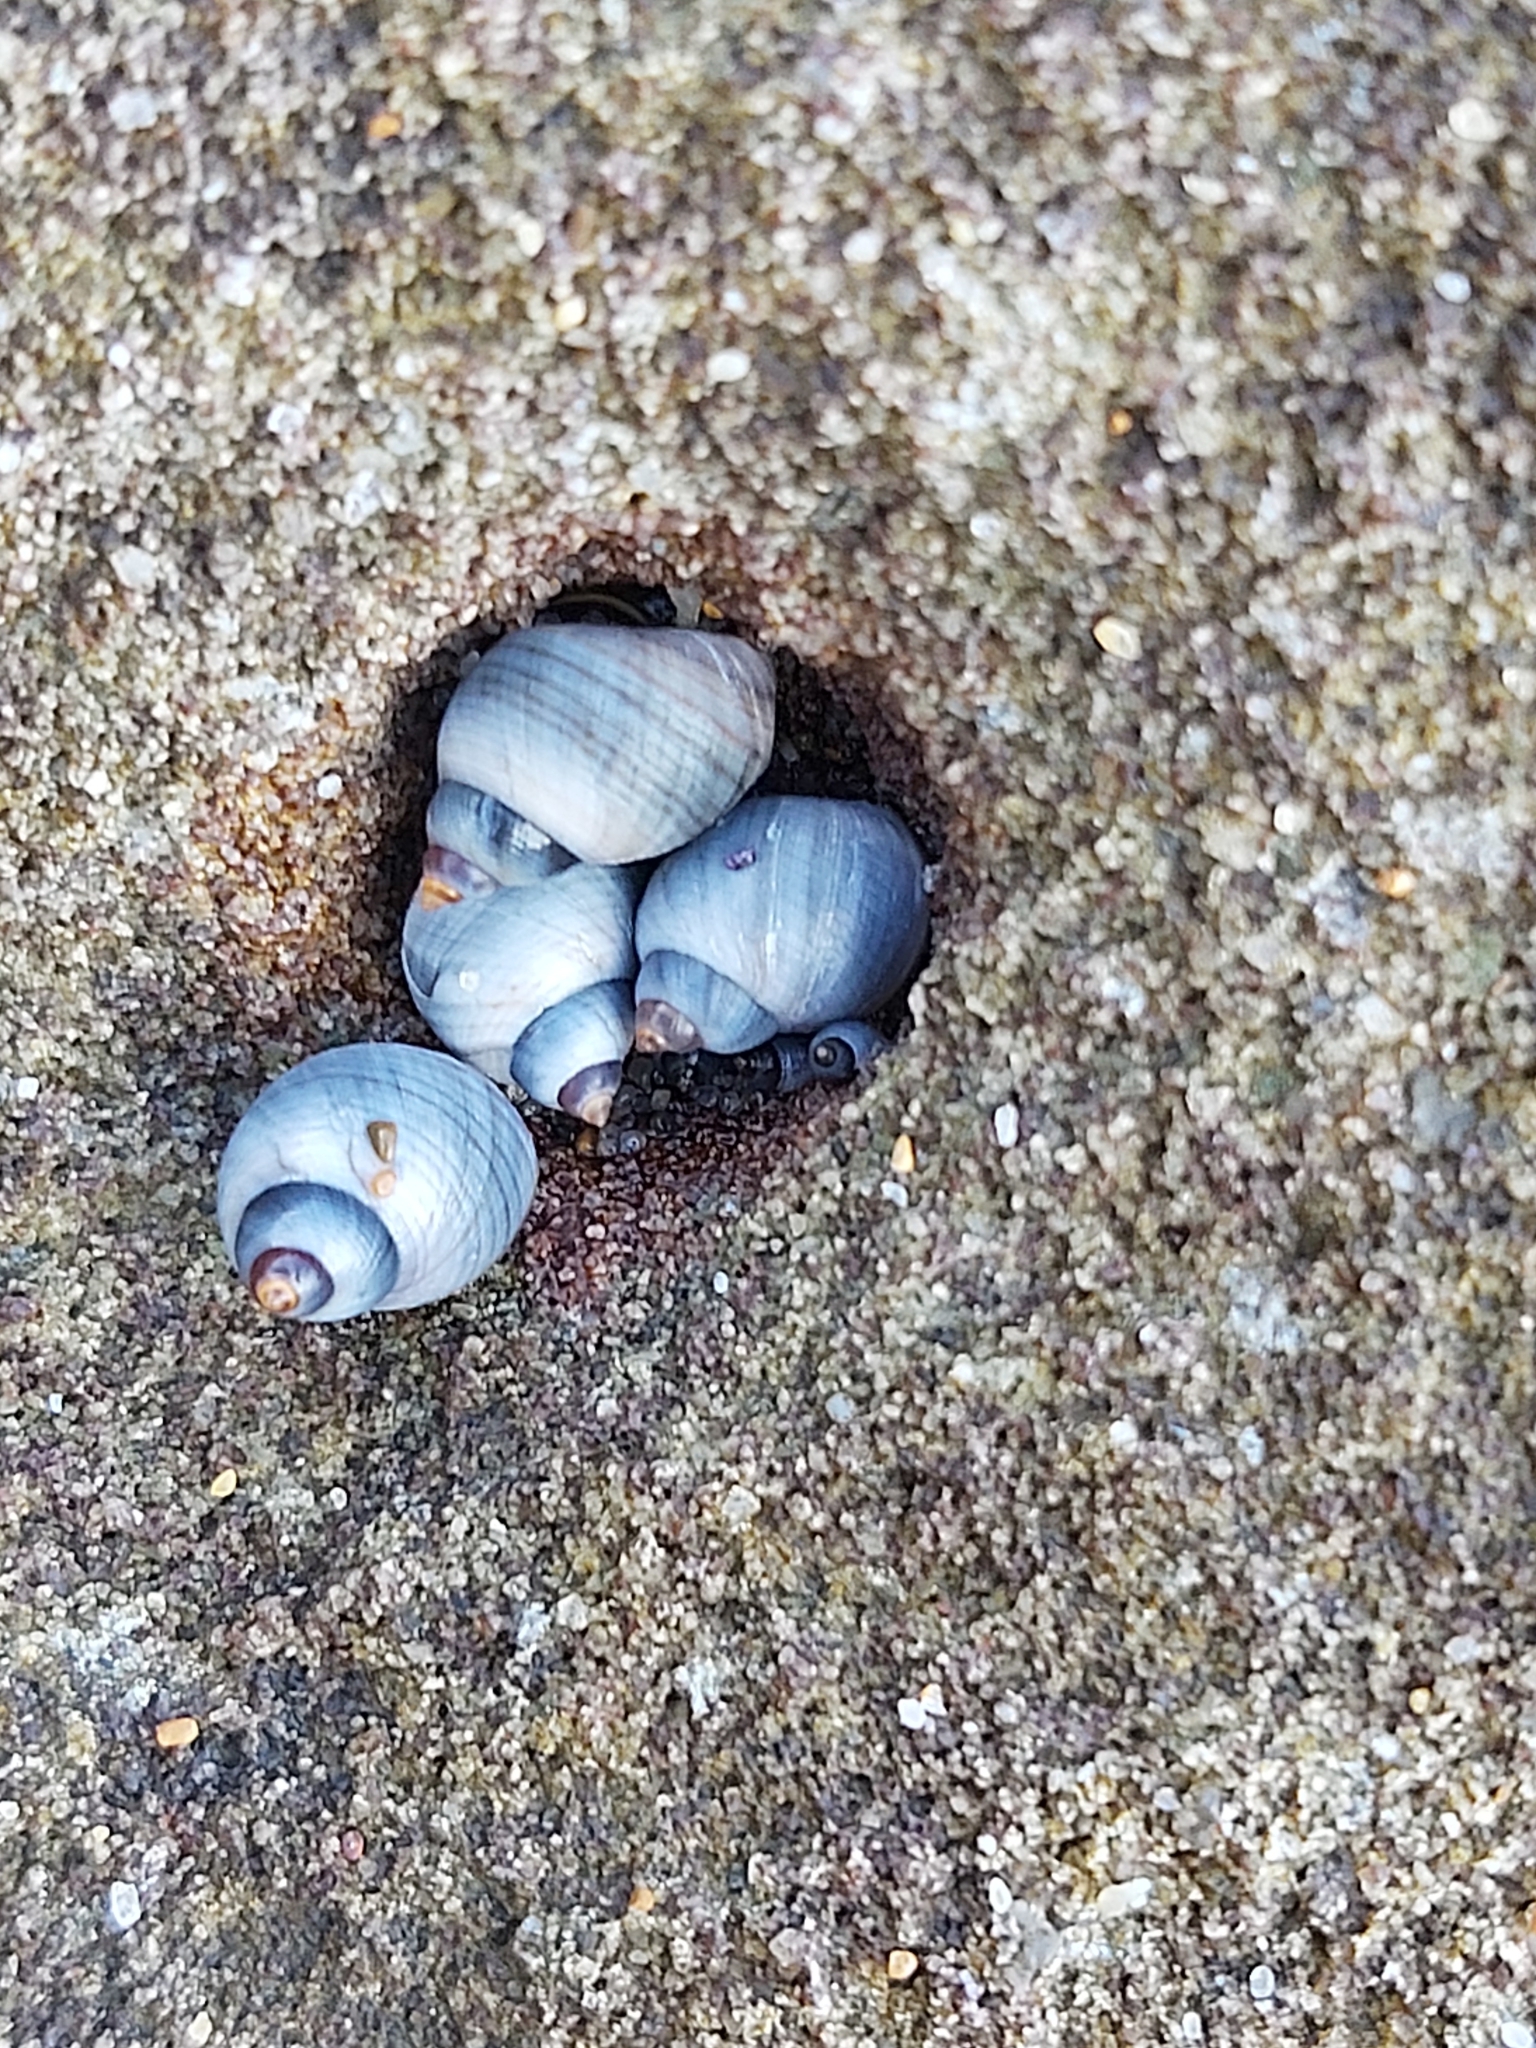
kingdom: Animalia
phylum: Mollusca
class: Gastropoda
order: Littorinimorpha
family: Littorinidae
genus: Austrolittorina
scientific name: Austrolittorina unifasciata
